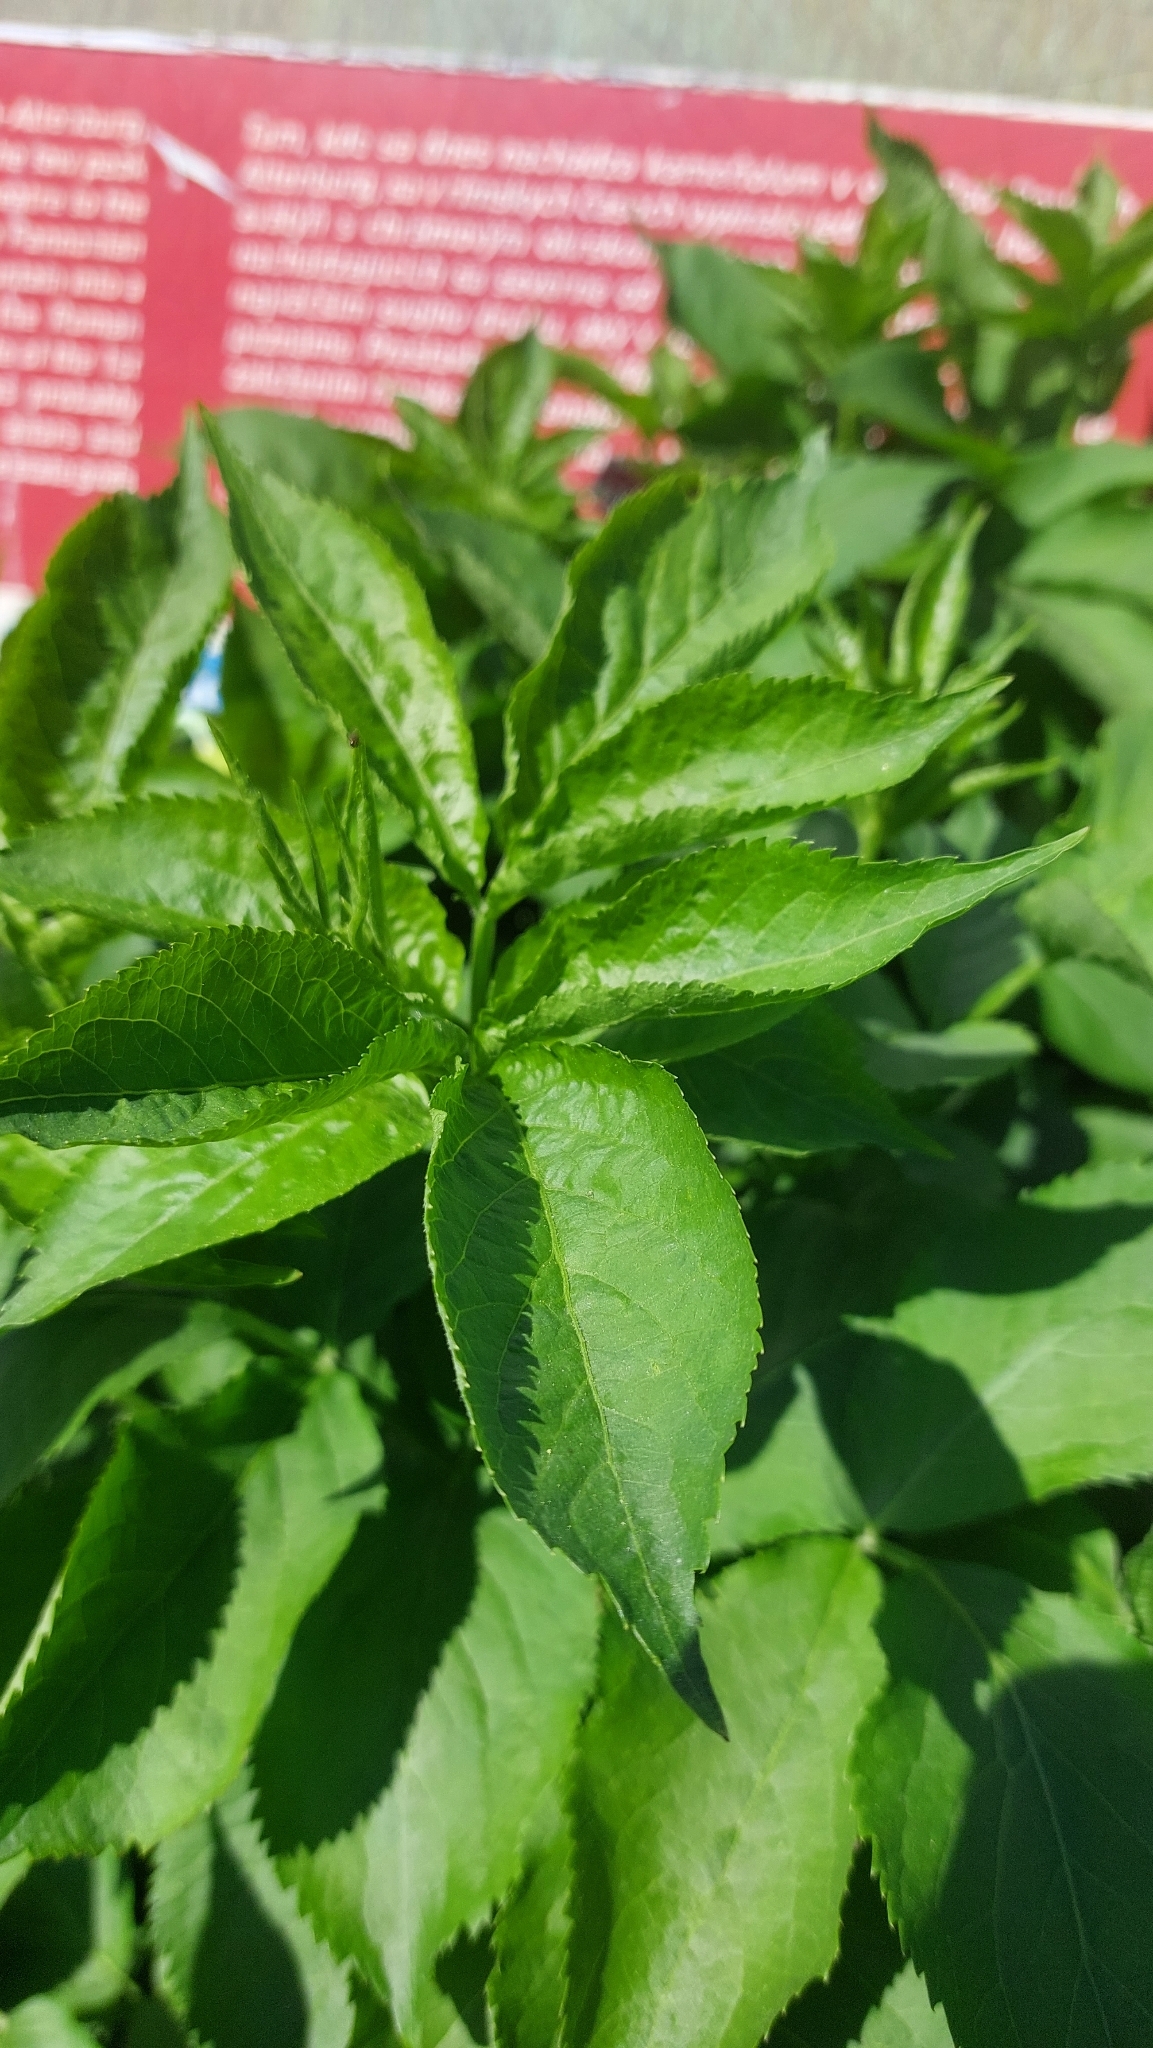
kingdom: Plantae
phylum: Tracheophyta
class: Magnoliopsida
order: Dipsacales
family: Viburnaceae
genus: Sambucus
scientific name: Sambucus nigra
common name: Elder
